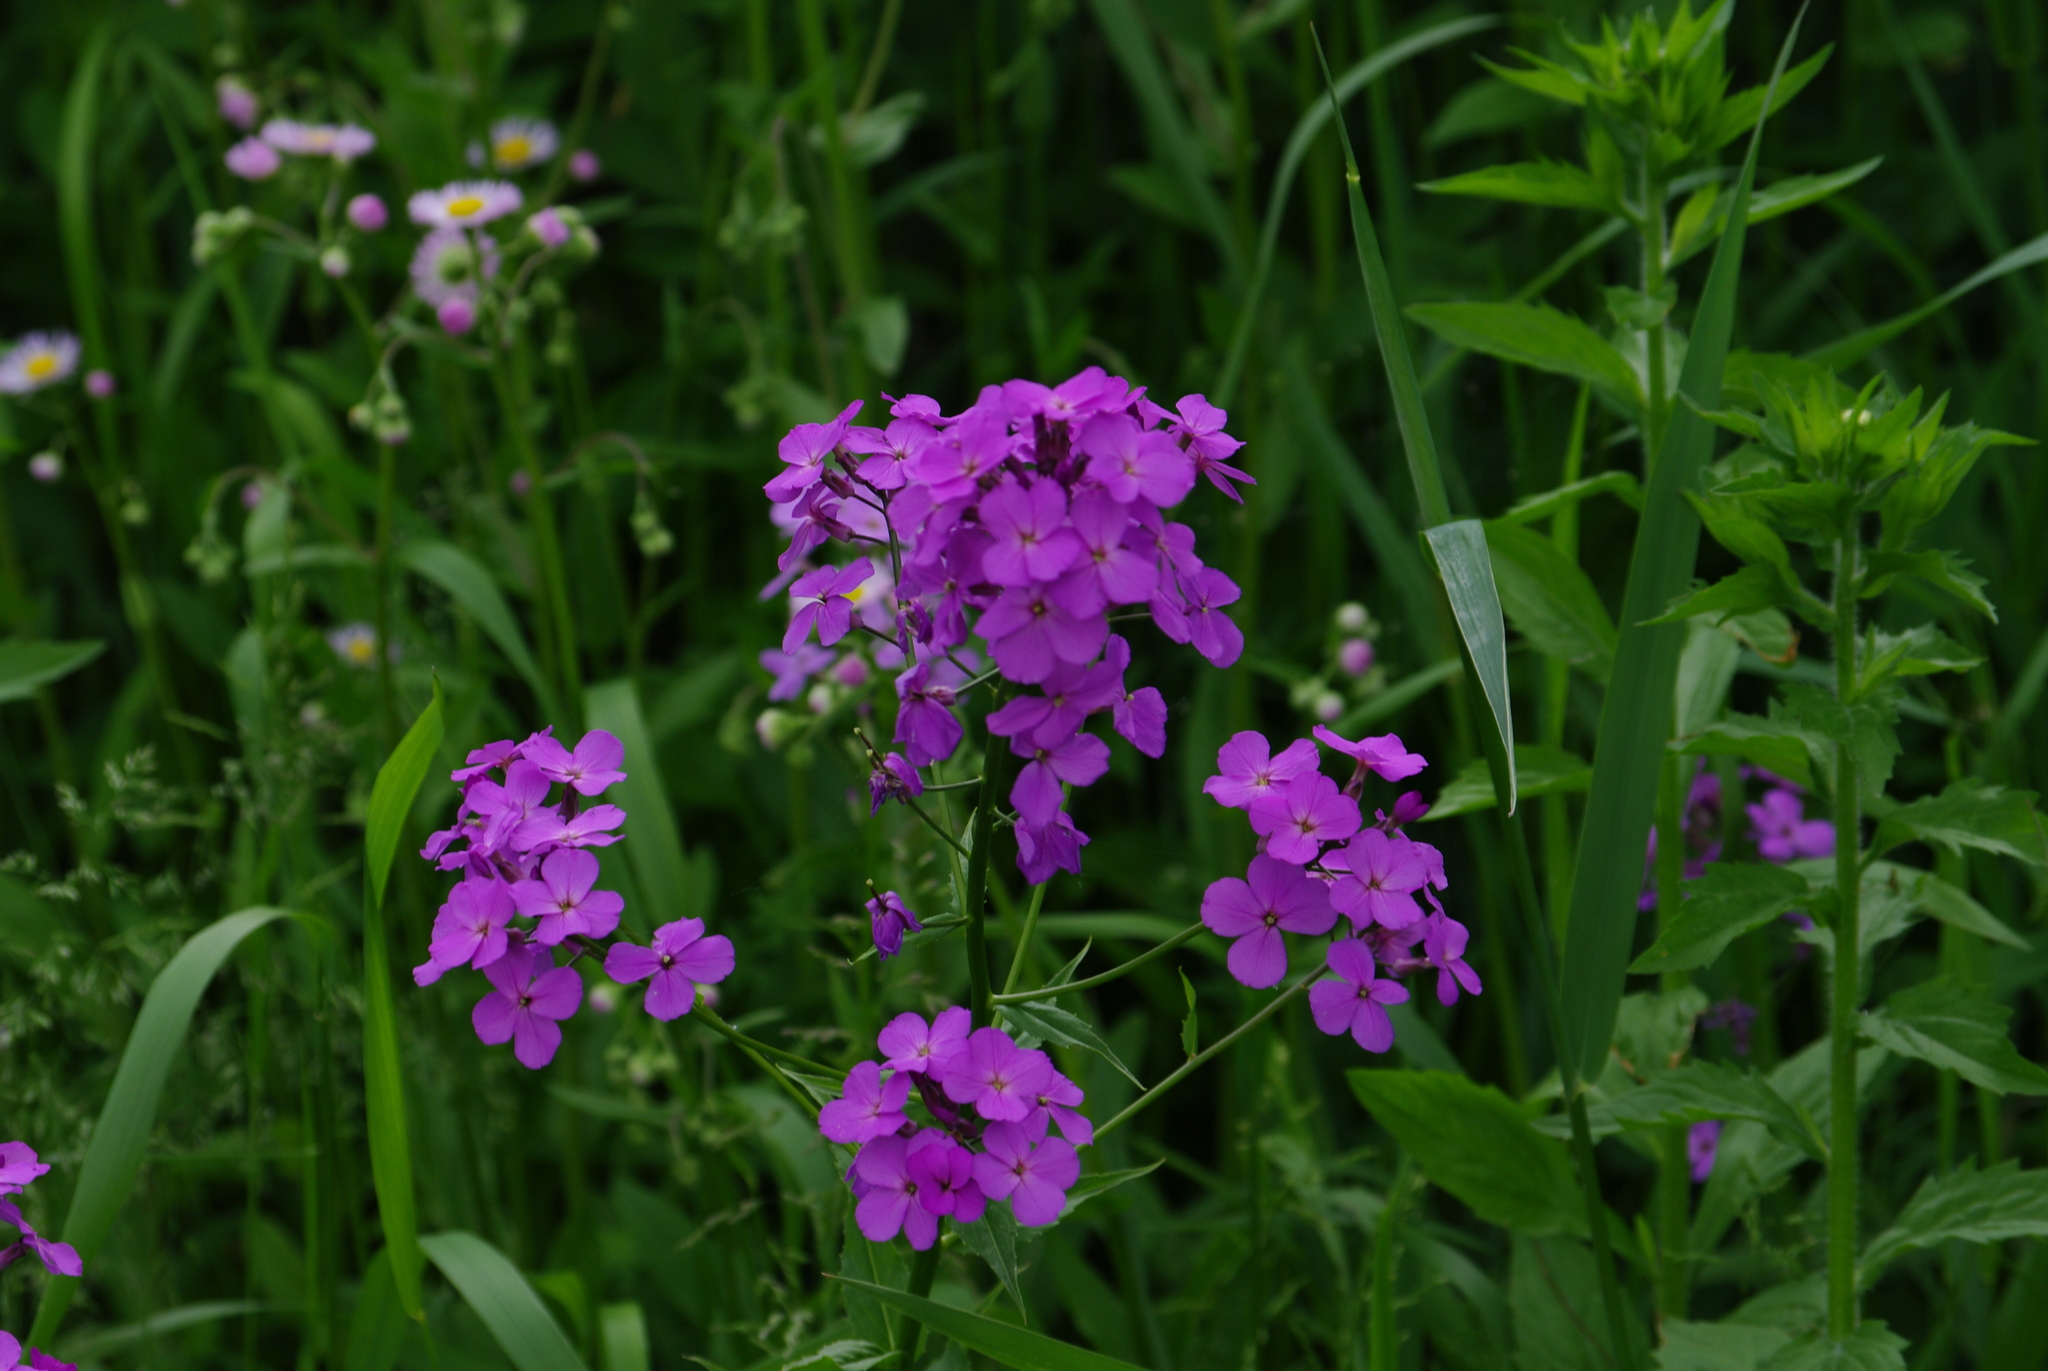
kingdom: Plantae
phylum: Tracheophyta
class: Magnoliopsida
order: Brassicales
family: Brassicaceae
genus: Hesperis
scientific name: Hesperis matronalis
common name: Dame's-violet
